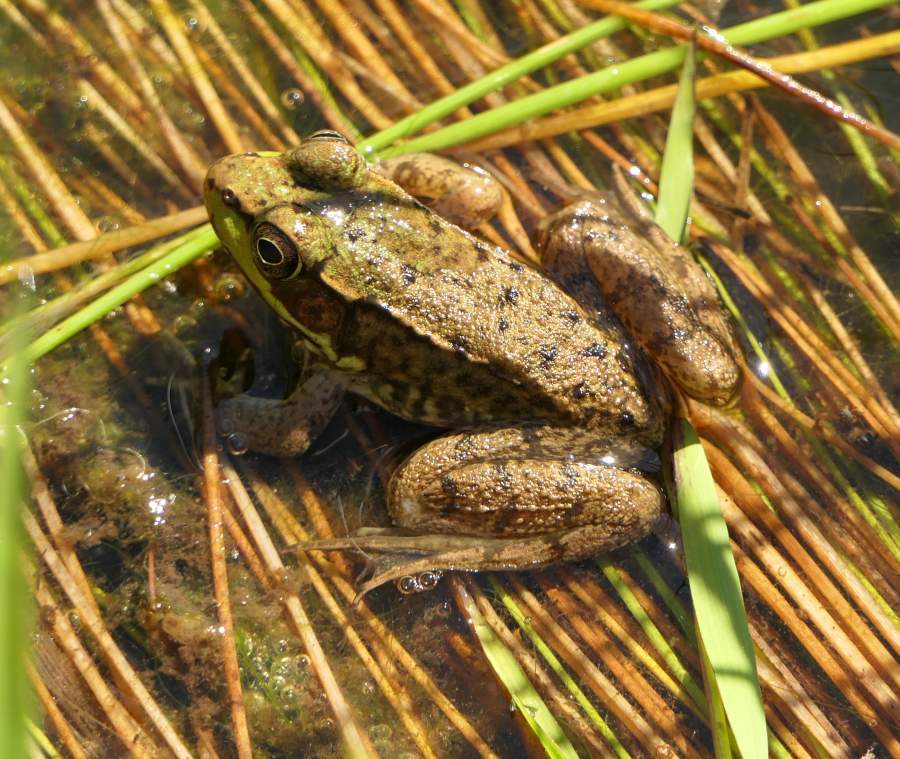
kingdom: Animalia
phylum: Chordata
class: Amphibia
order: Anura
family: Ranidae
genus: Lithobates
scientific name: Lithobates clamitans
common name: Green frog
